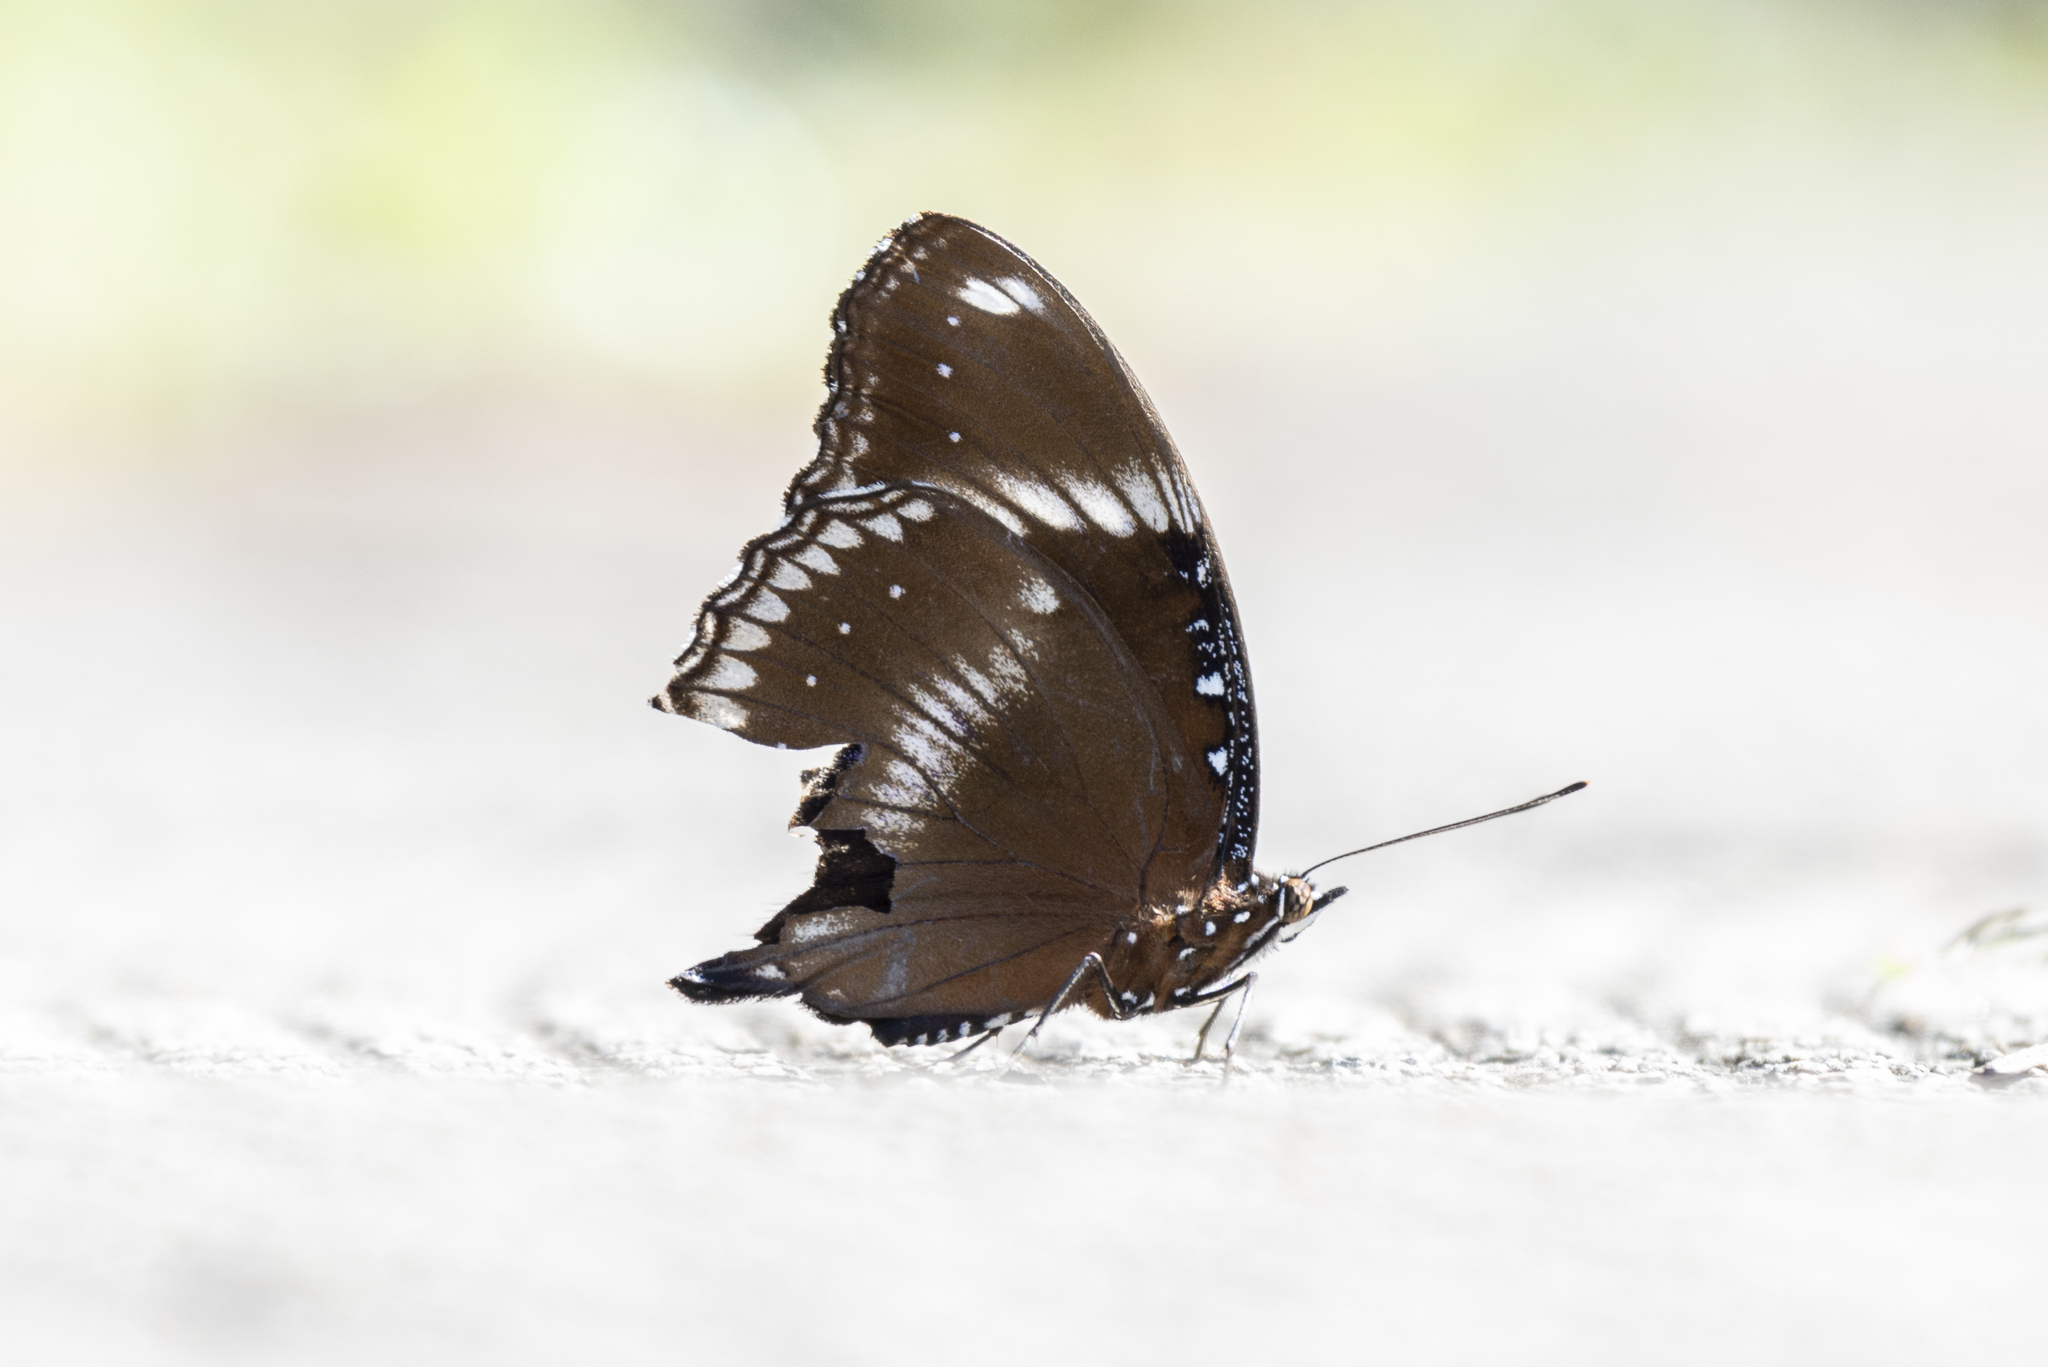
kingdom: Animalia
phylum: Arthropoda
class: Insecta
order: Lepidoptera
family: Nymphalidae
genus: Hypolimnas
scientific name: Hypolimnas bolina
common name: Great eggfly
